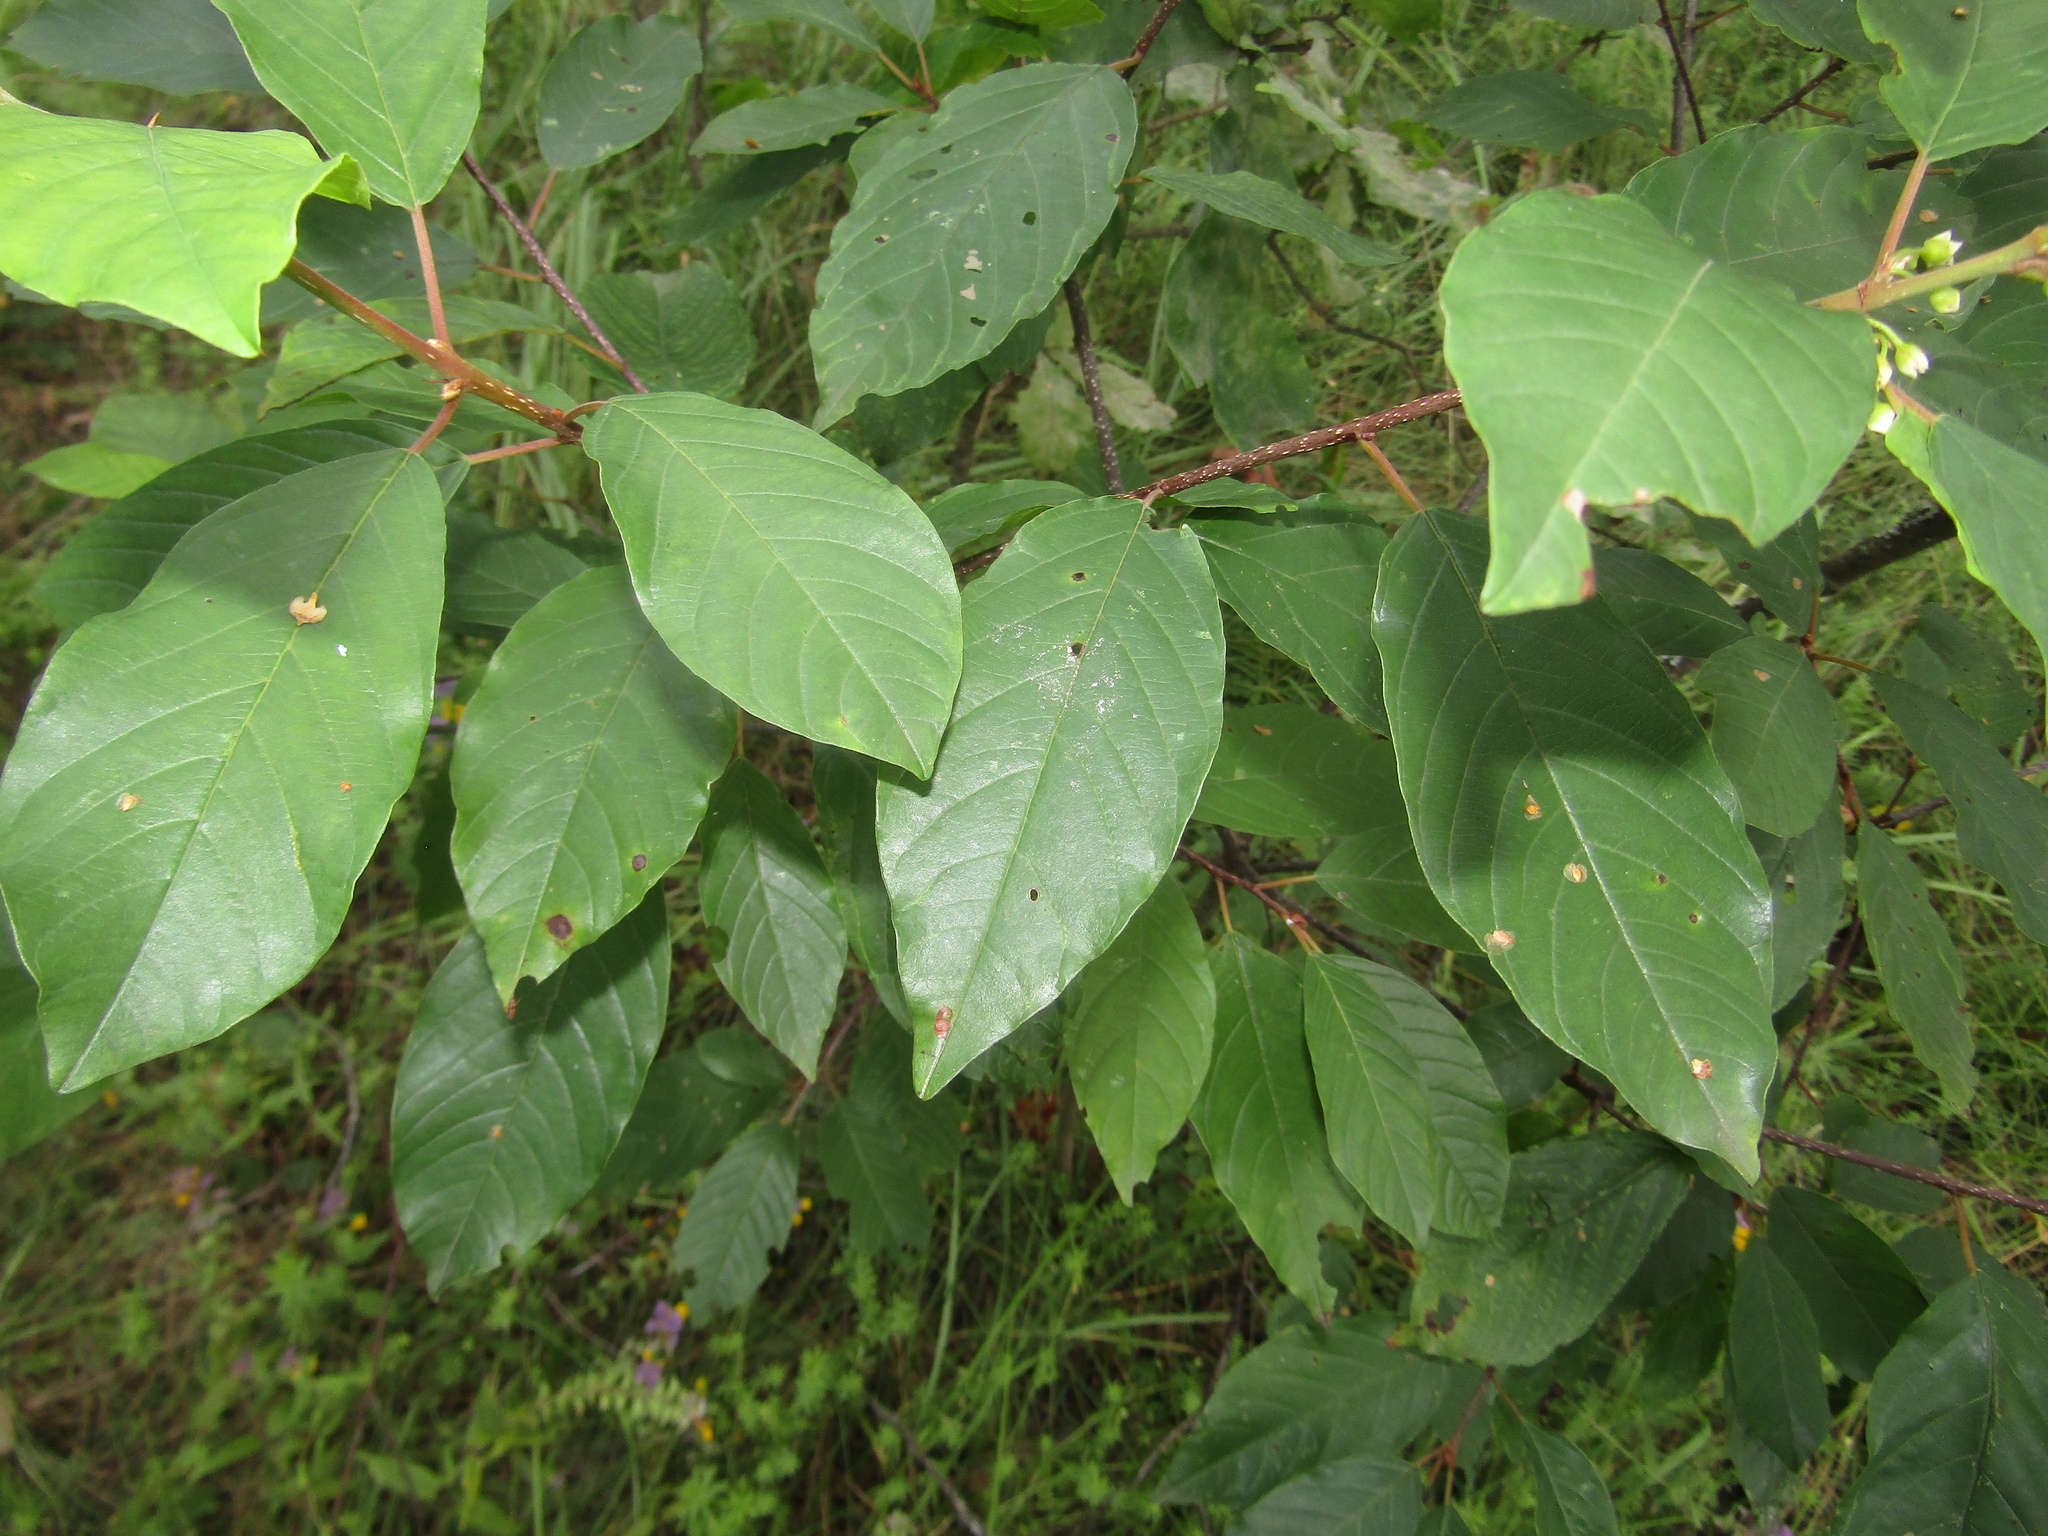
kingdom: Plantae
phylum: Tracheophyta
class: Magnoliopsida
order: Rosales
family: Rhamnaceae
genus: Frangula
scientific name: Frangula alnus
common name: Alder buckthorn
